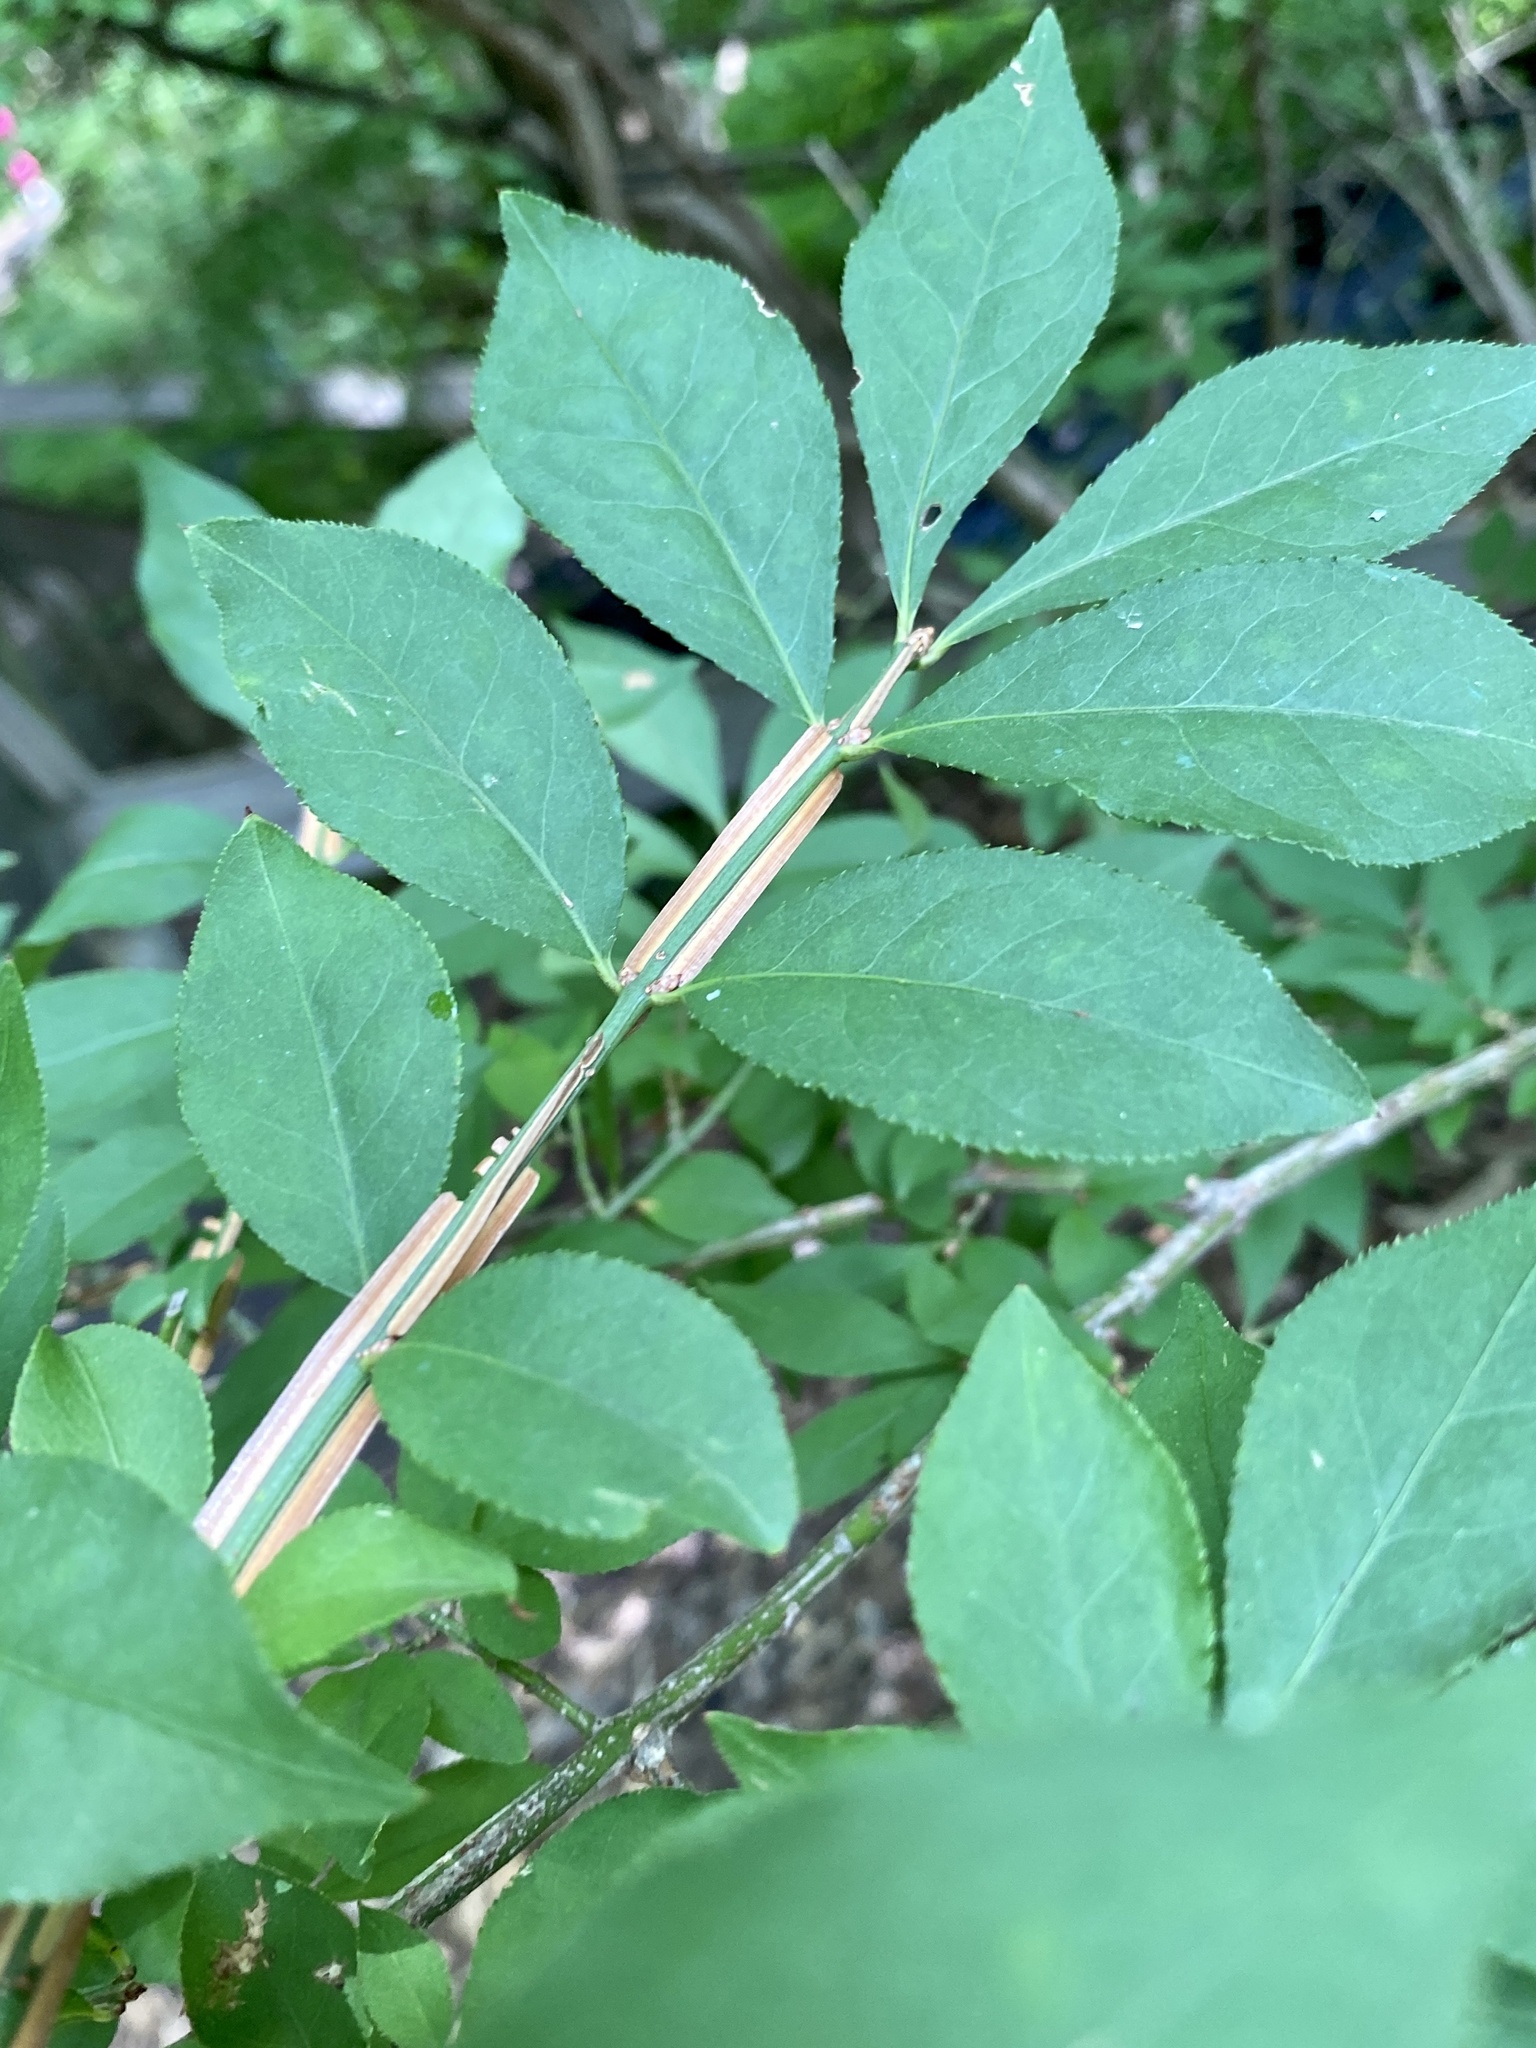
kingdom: Plantae
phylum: Tracheophyta
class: Magnoliopsida
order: Celastrales
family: Celastraceae
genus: Euonymus
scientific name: Euonymus alatus
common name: Winged euonymus
